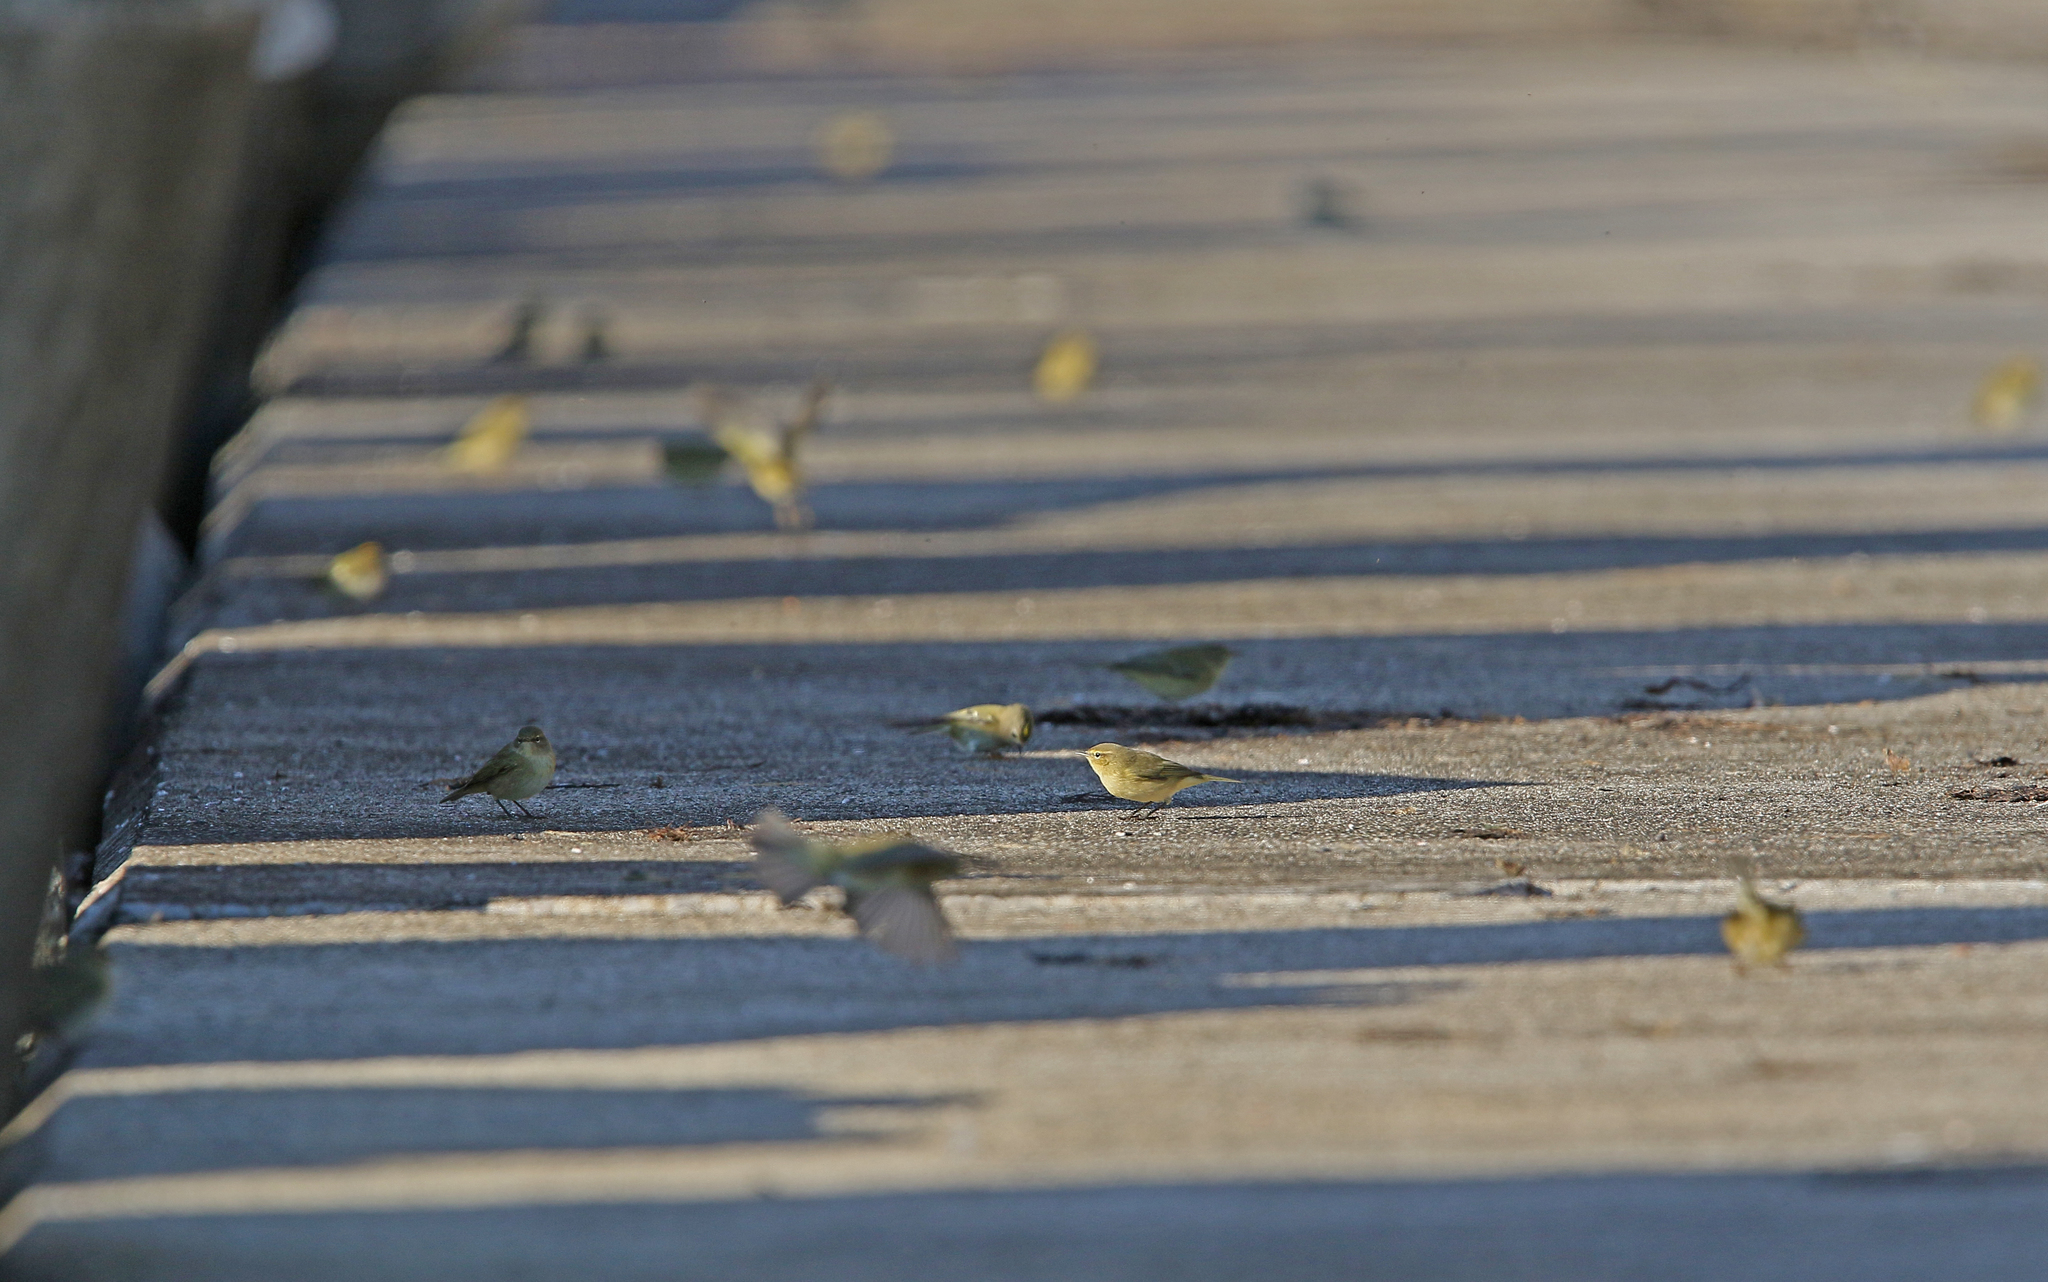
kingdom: Animalia
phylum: Chordata
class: Aves
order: Passeriformes
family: Phylloscopidae
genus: Phylloscopus
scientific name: Phylloscopus collybita
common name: Common chiffchaff
